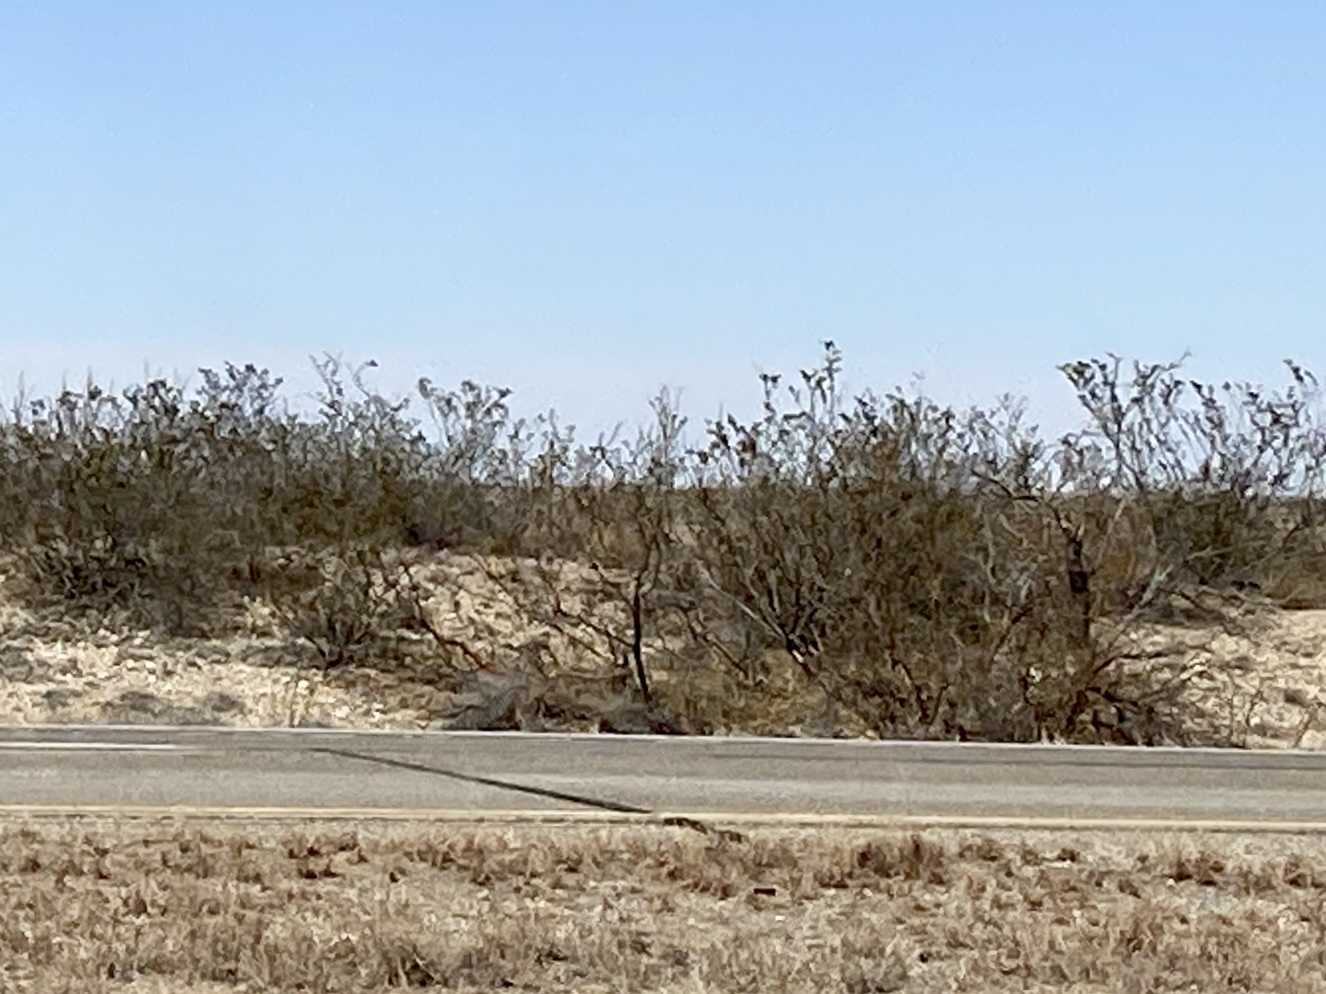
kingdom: Plantae
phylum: Tracheophyta
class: Magnoliopsida
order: Zygophyllales
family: Zygophyllaceae
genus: Larrea
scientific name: Larrea tridentata
